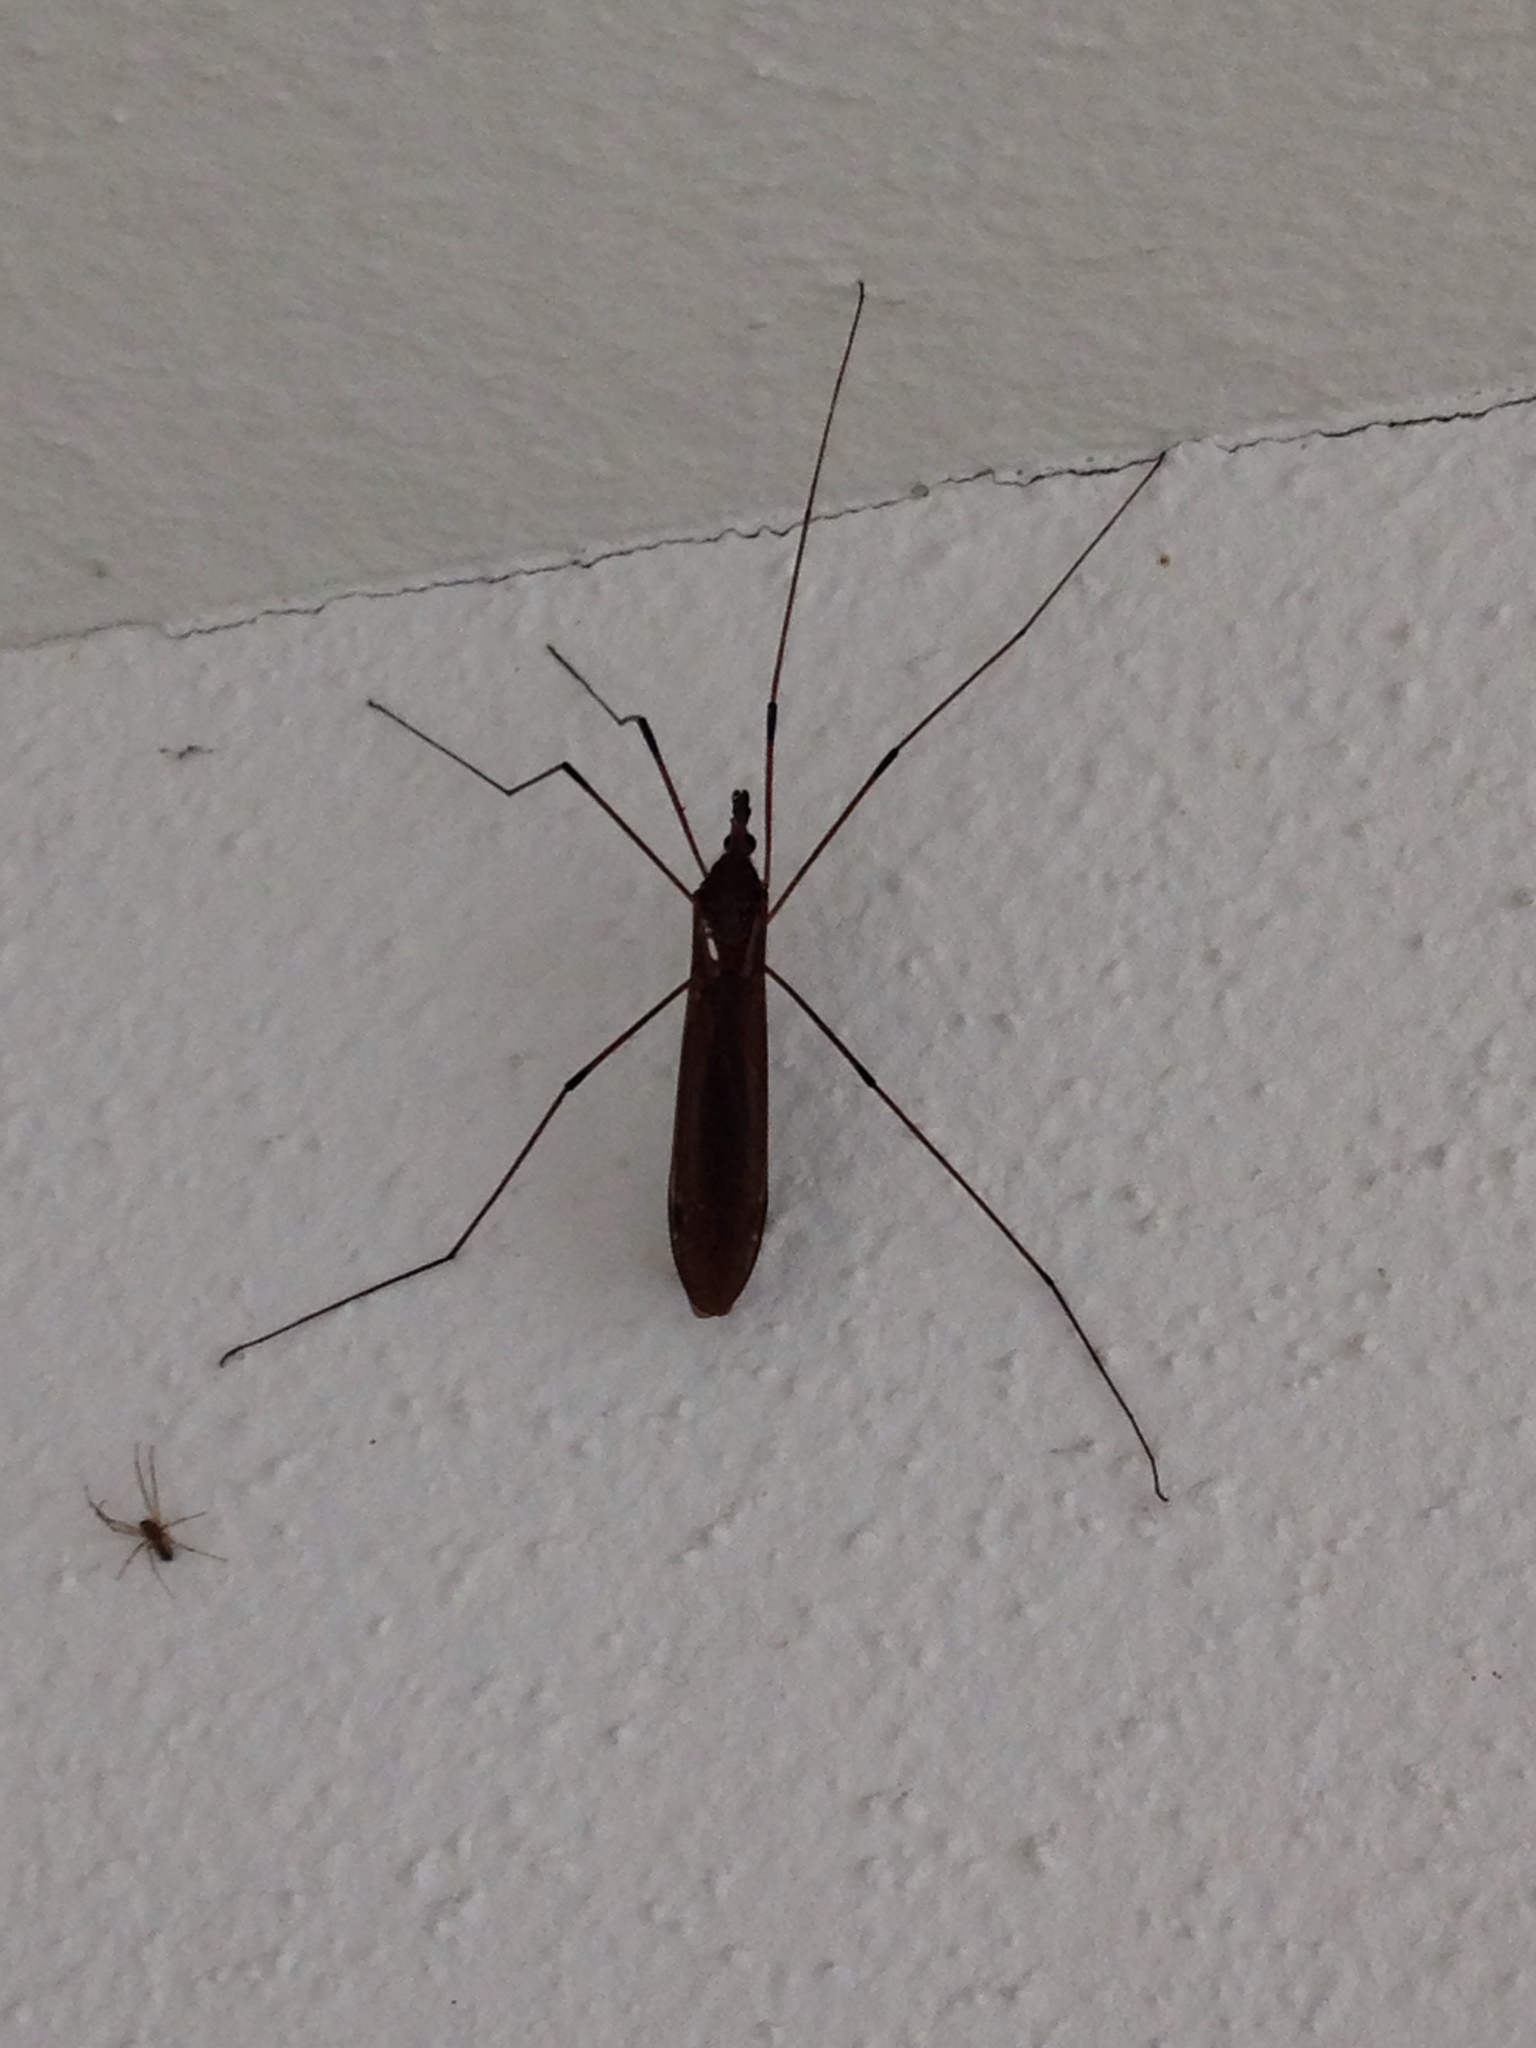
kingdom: Animalia
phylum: Arthropoda
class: Insecta
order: Diptera
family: Tipulidae
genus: Holorusia
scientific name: Holorusia hespera
